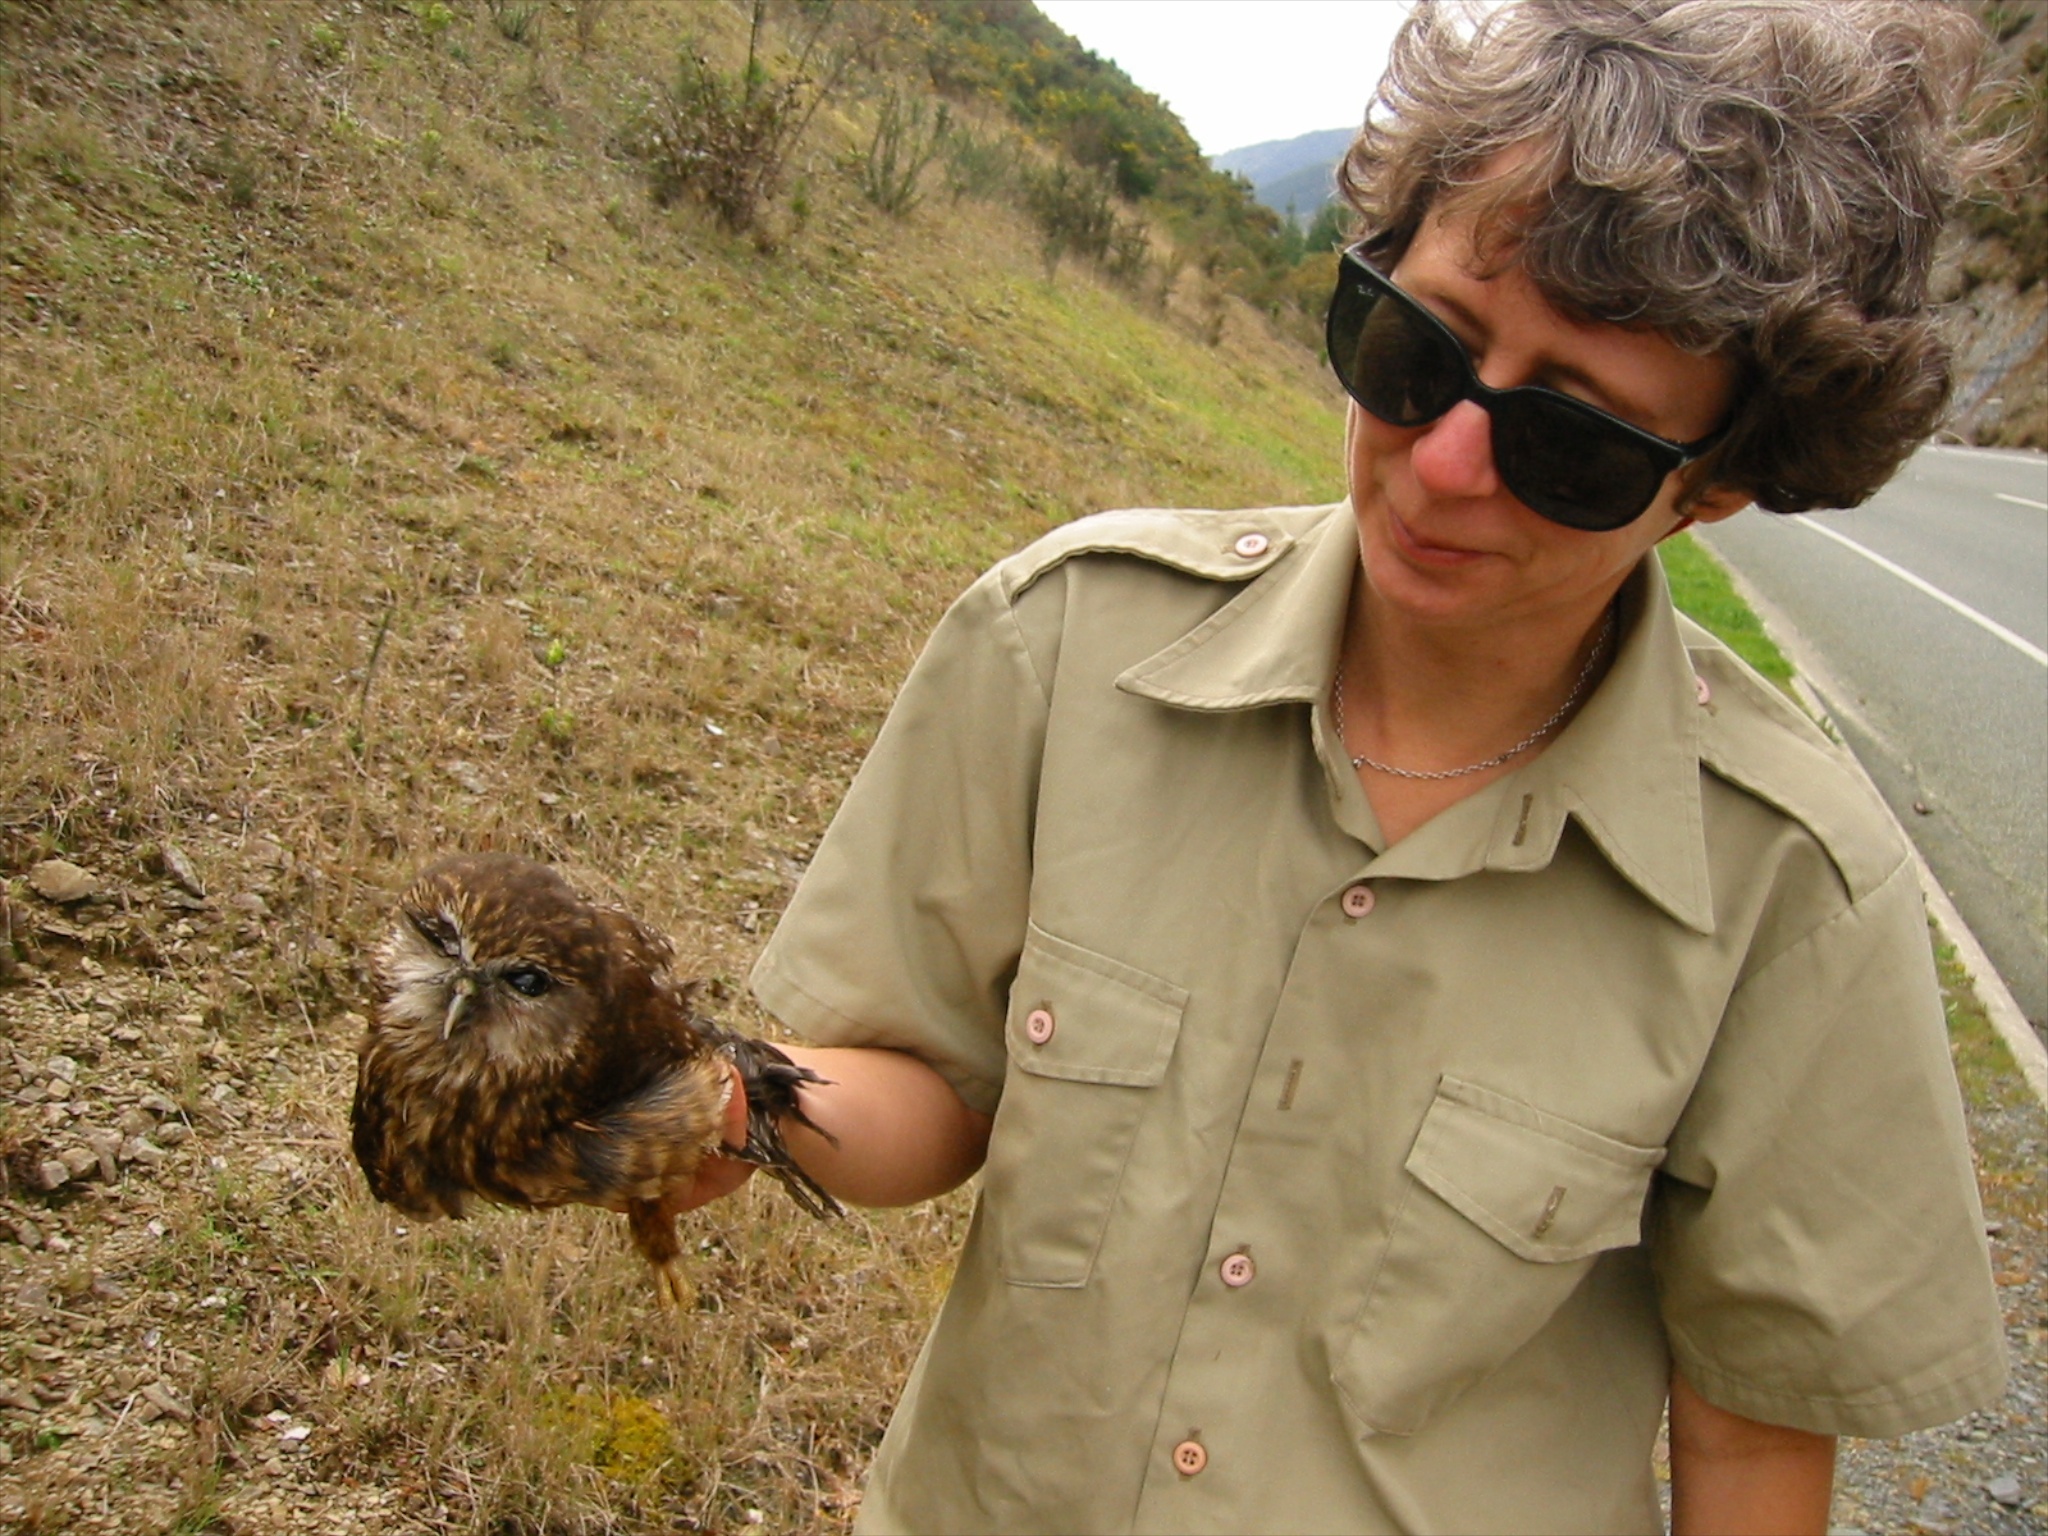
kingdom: Animalia
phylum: Chordata
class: Aves
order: Strigiformes
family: Strigidae
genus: Ninox
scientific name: Ninox novaeseelandiae
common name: Morepork
